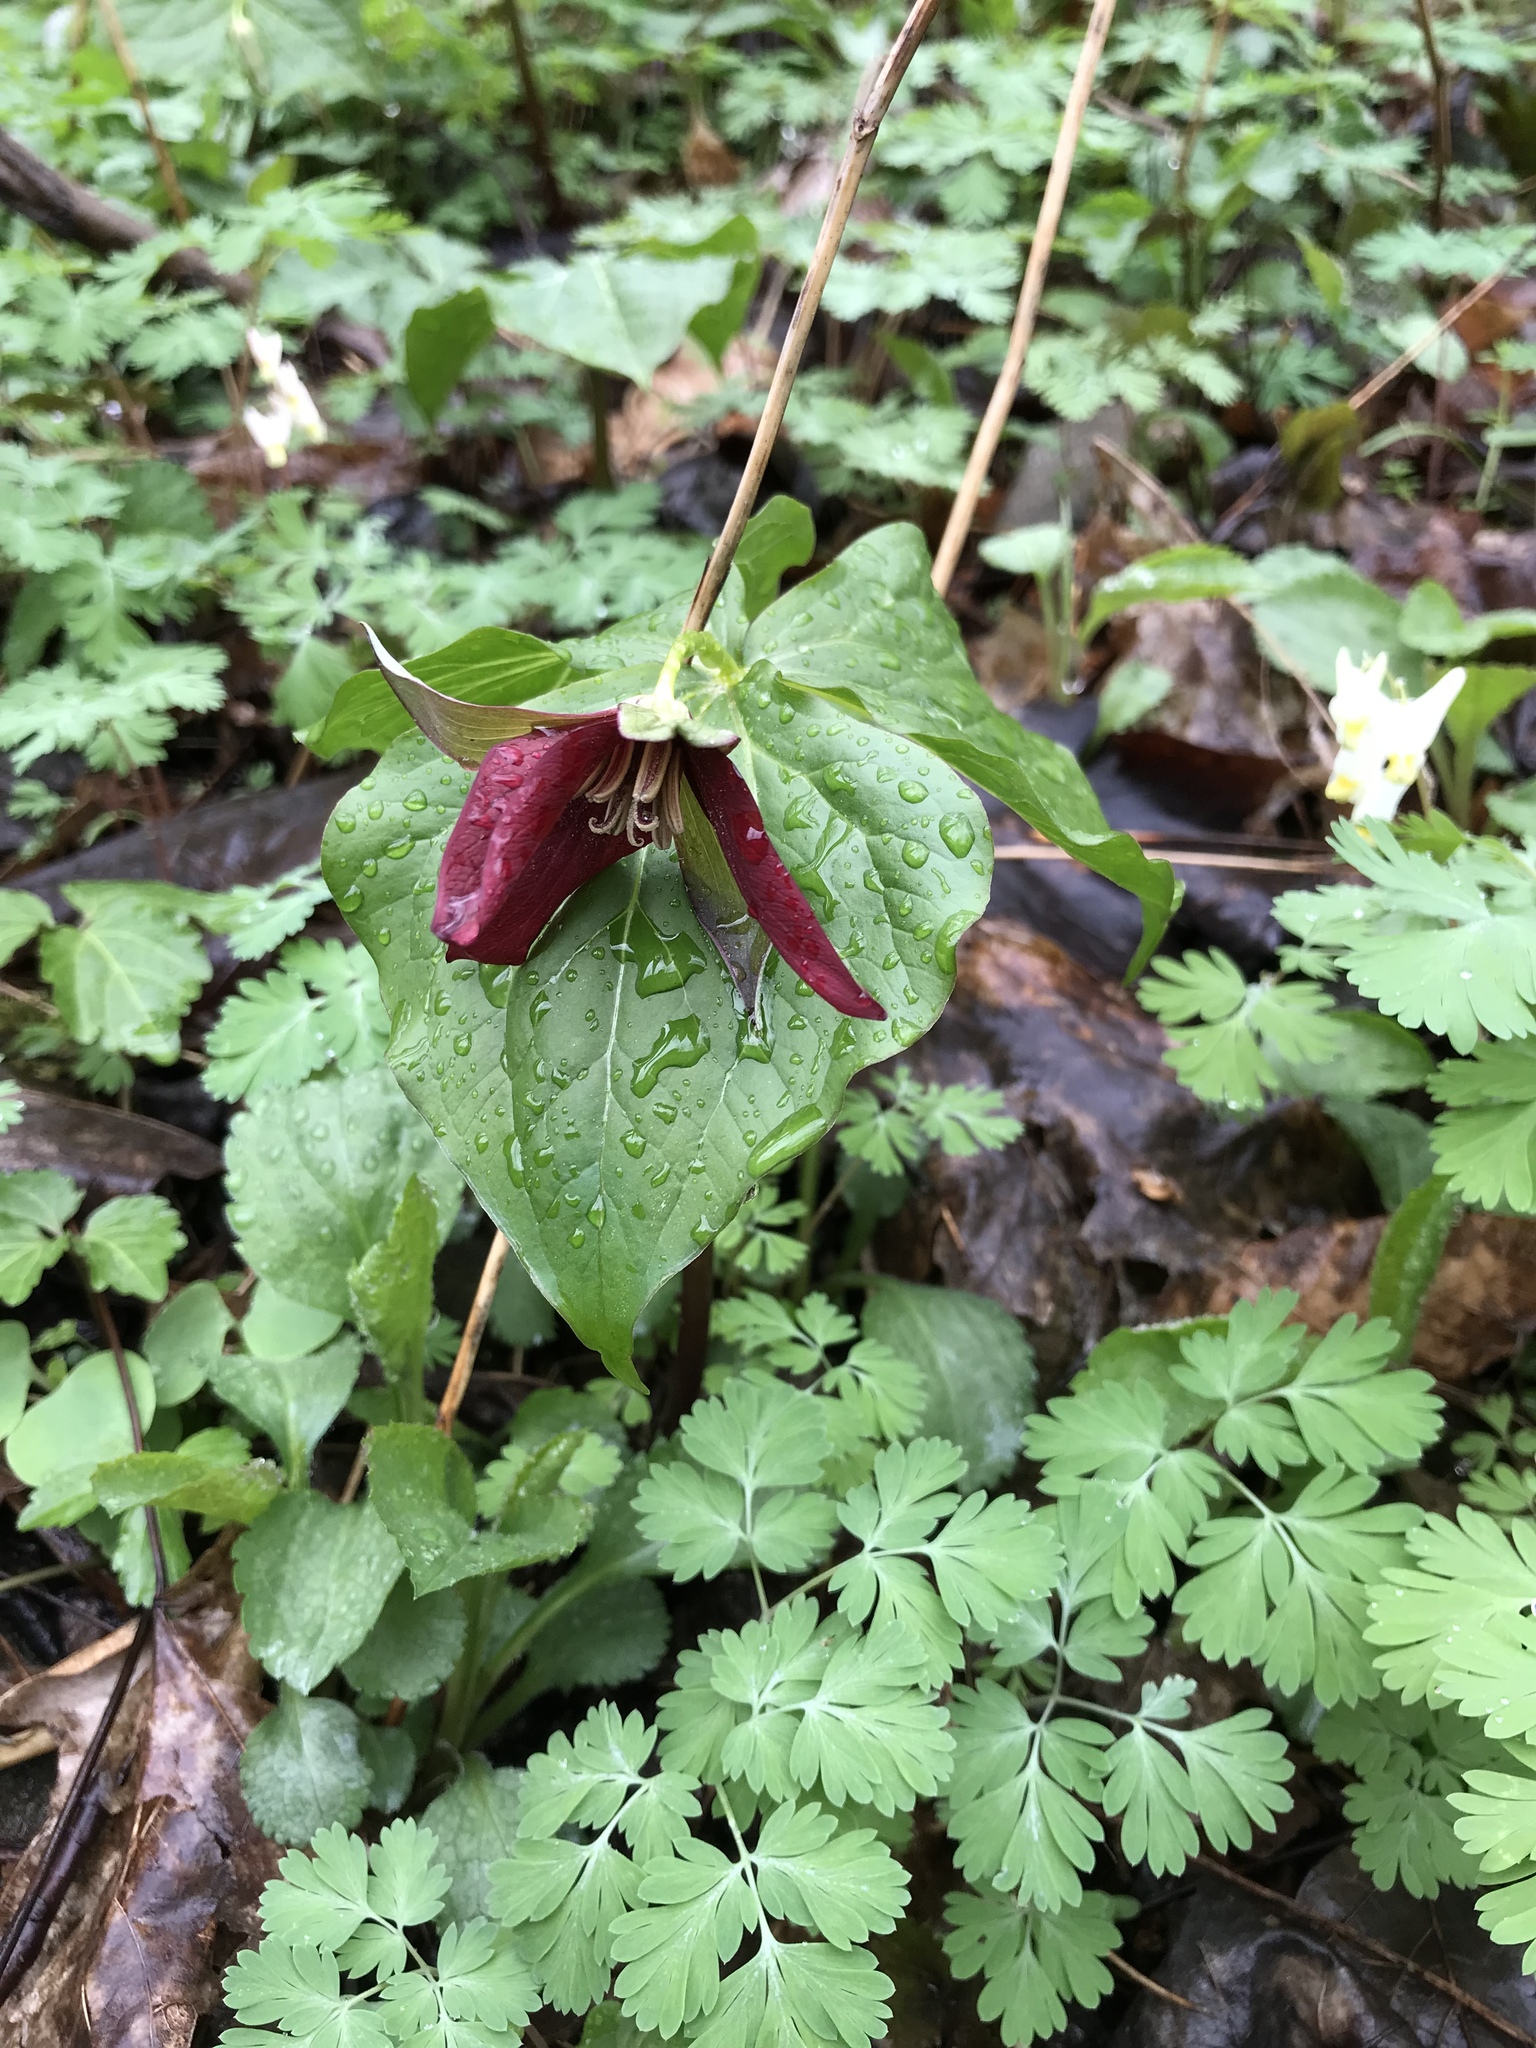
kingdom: Plantae
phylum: Tracheophyta
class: Liliopsida
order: Liliales
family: Melanthiaceae
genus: Trillium
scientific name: Trillium erectum
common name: Purple trillium
